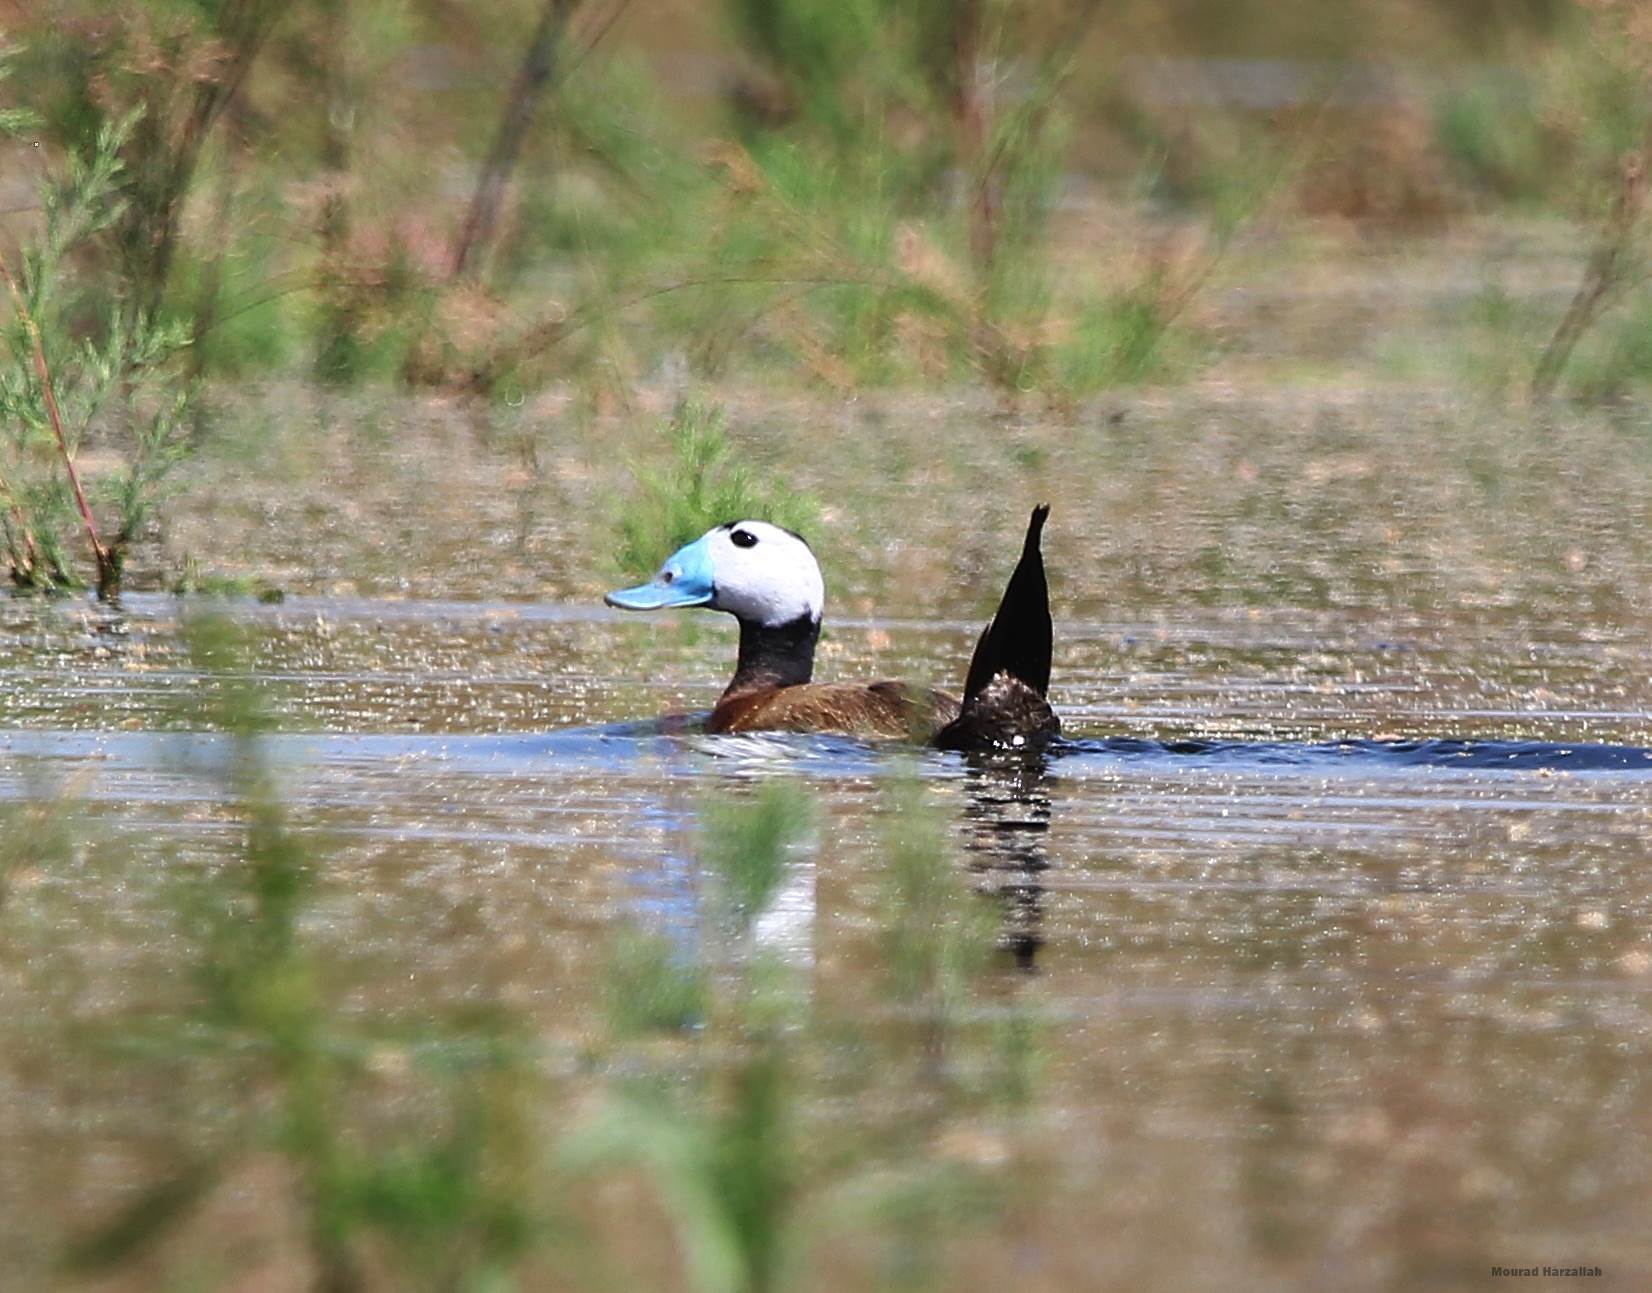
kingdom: Animalia
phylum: Chordata
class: Aves
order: Anseriformes
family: Anatidae
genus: Oxyura
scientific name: Oxyura leucocephala
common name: White-headed duck
